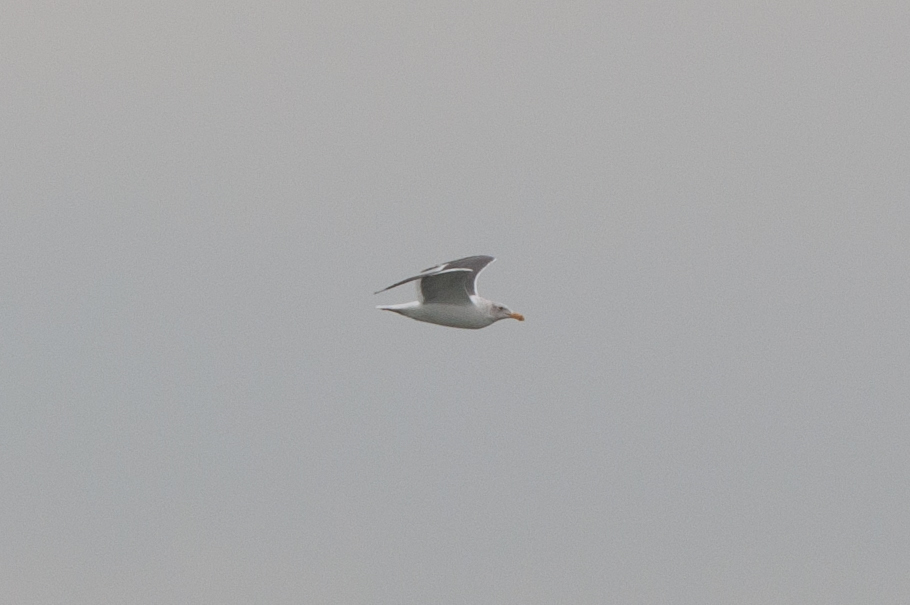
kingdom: Animalia
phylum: Chordata
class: Aves
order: Charadriiformes
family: Laridae
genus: Larus
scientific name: Larus occidentalis
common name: Western gull
